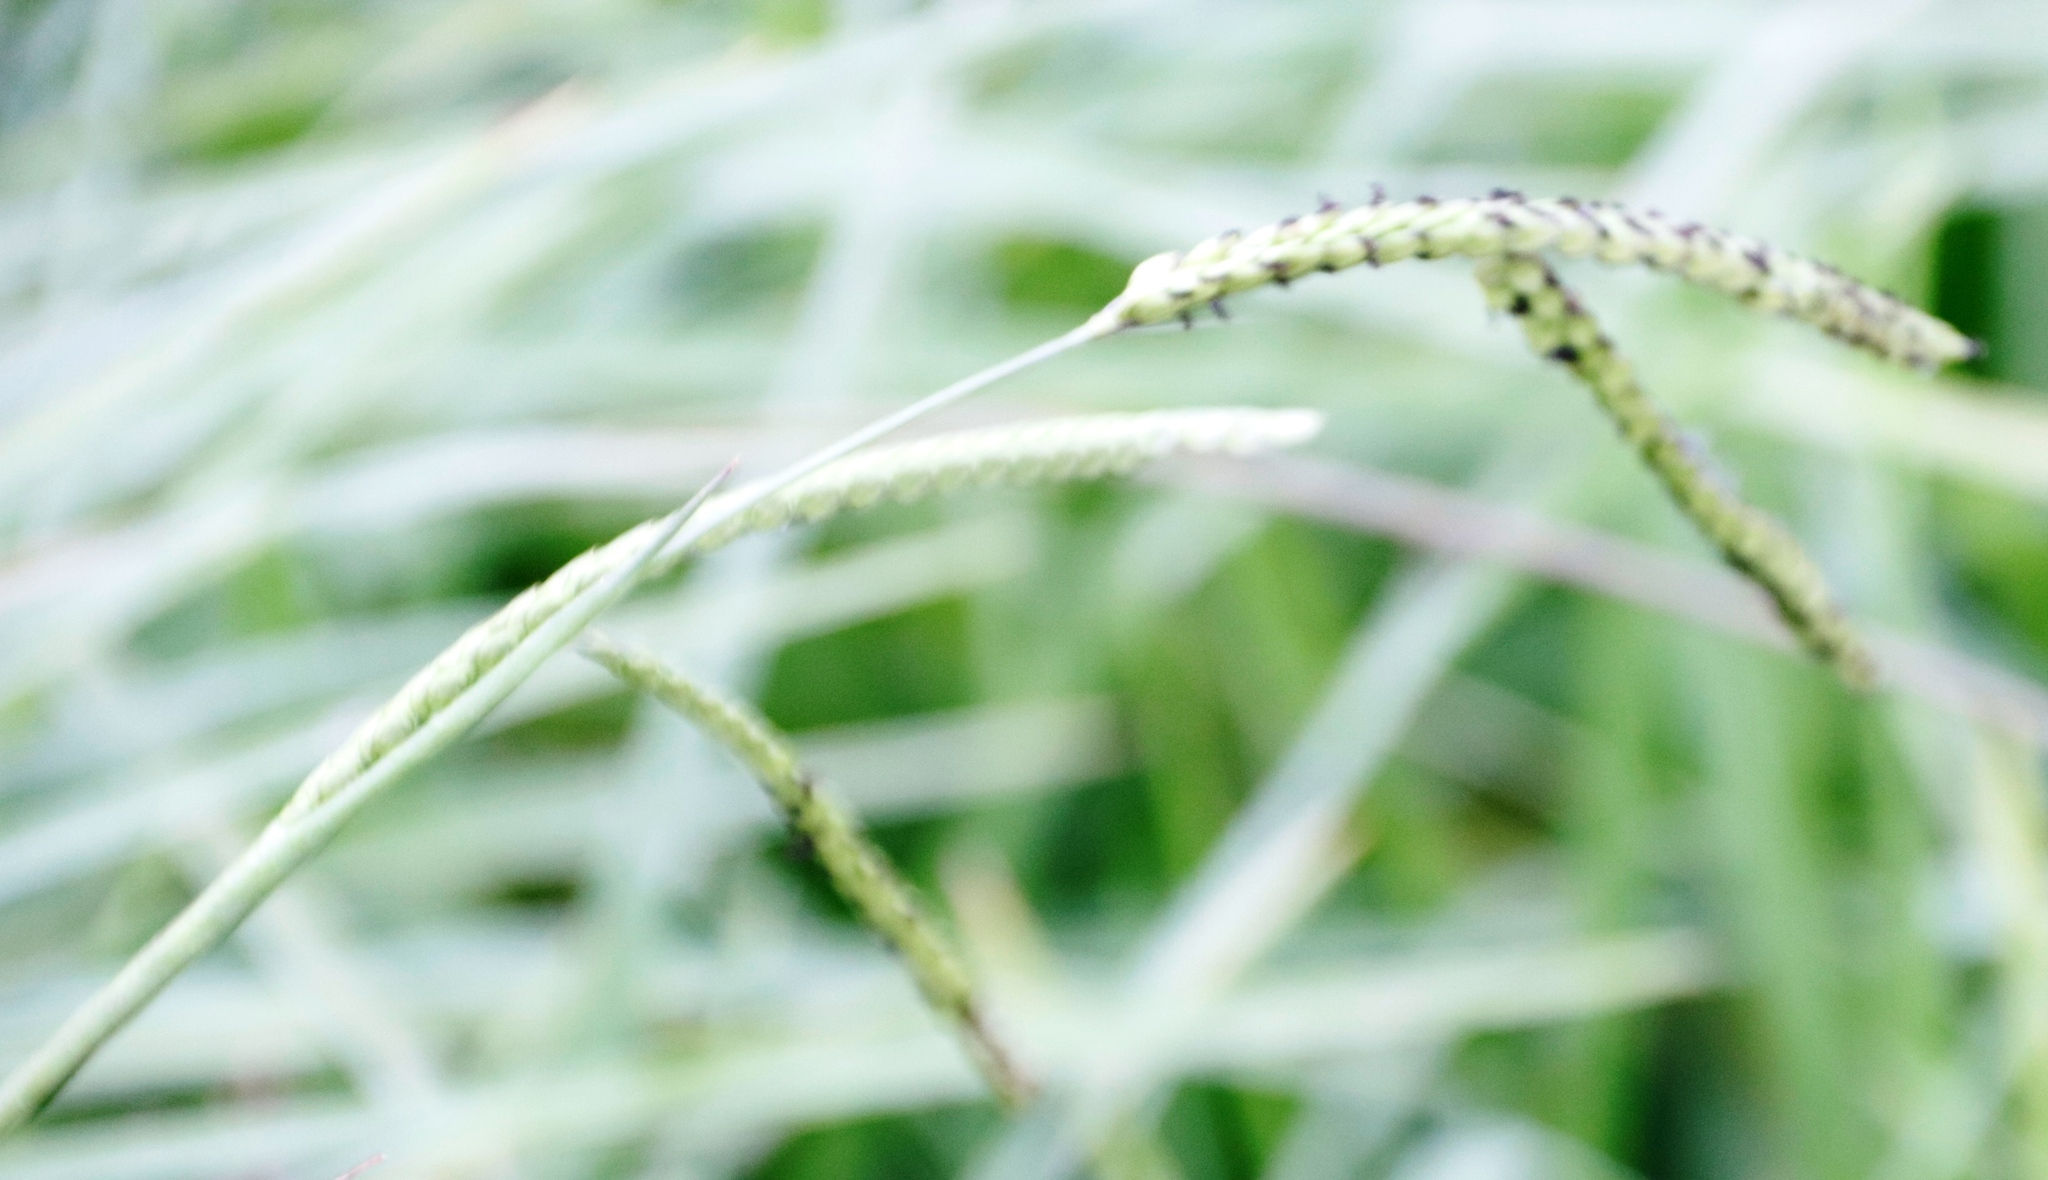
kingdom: Plantae
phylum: Tracheophyta
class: Liliopsida
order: Poales
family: Poaceae
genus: Paspalum
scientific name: Paspalum dilatatum
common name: Dallisgrass
